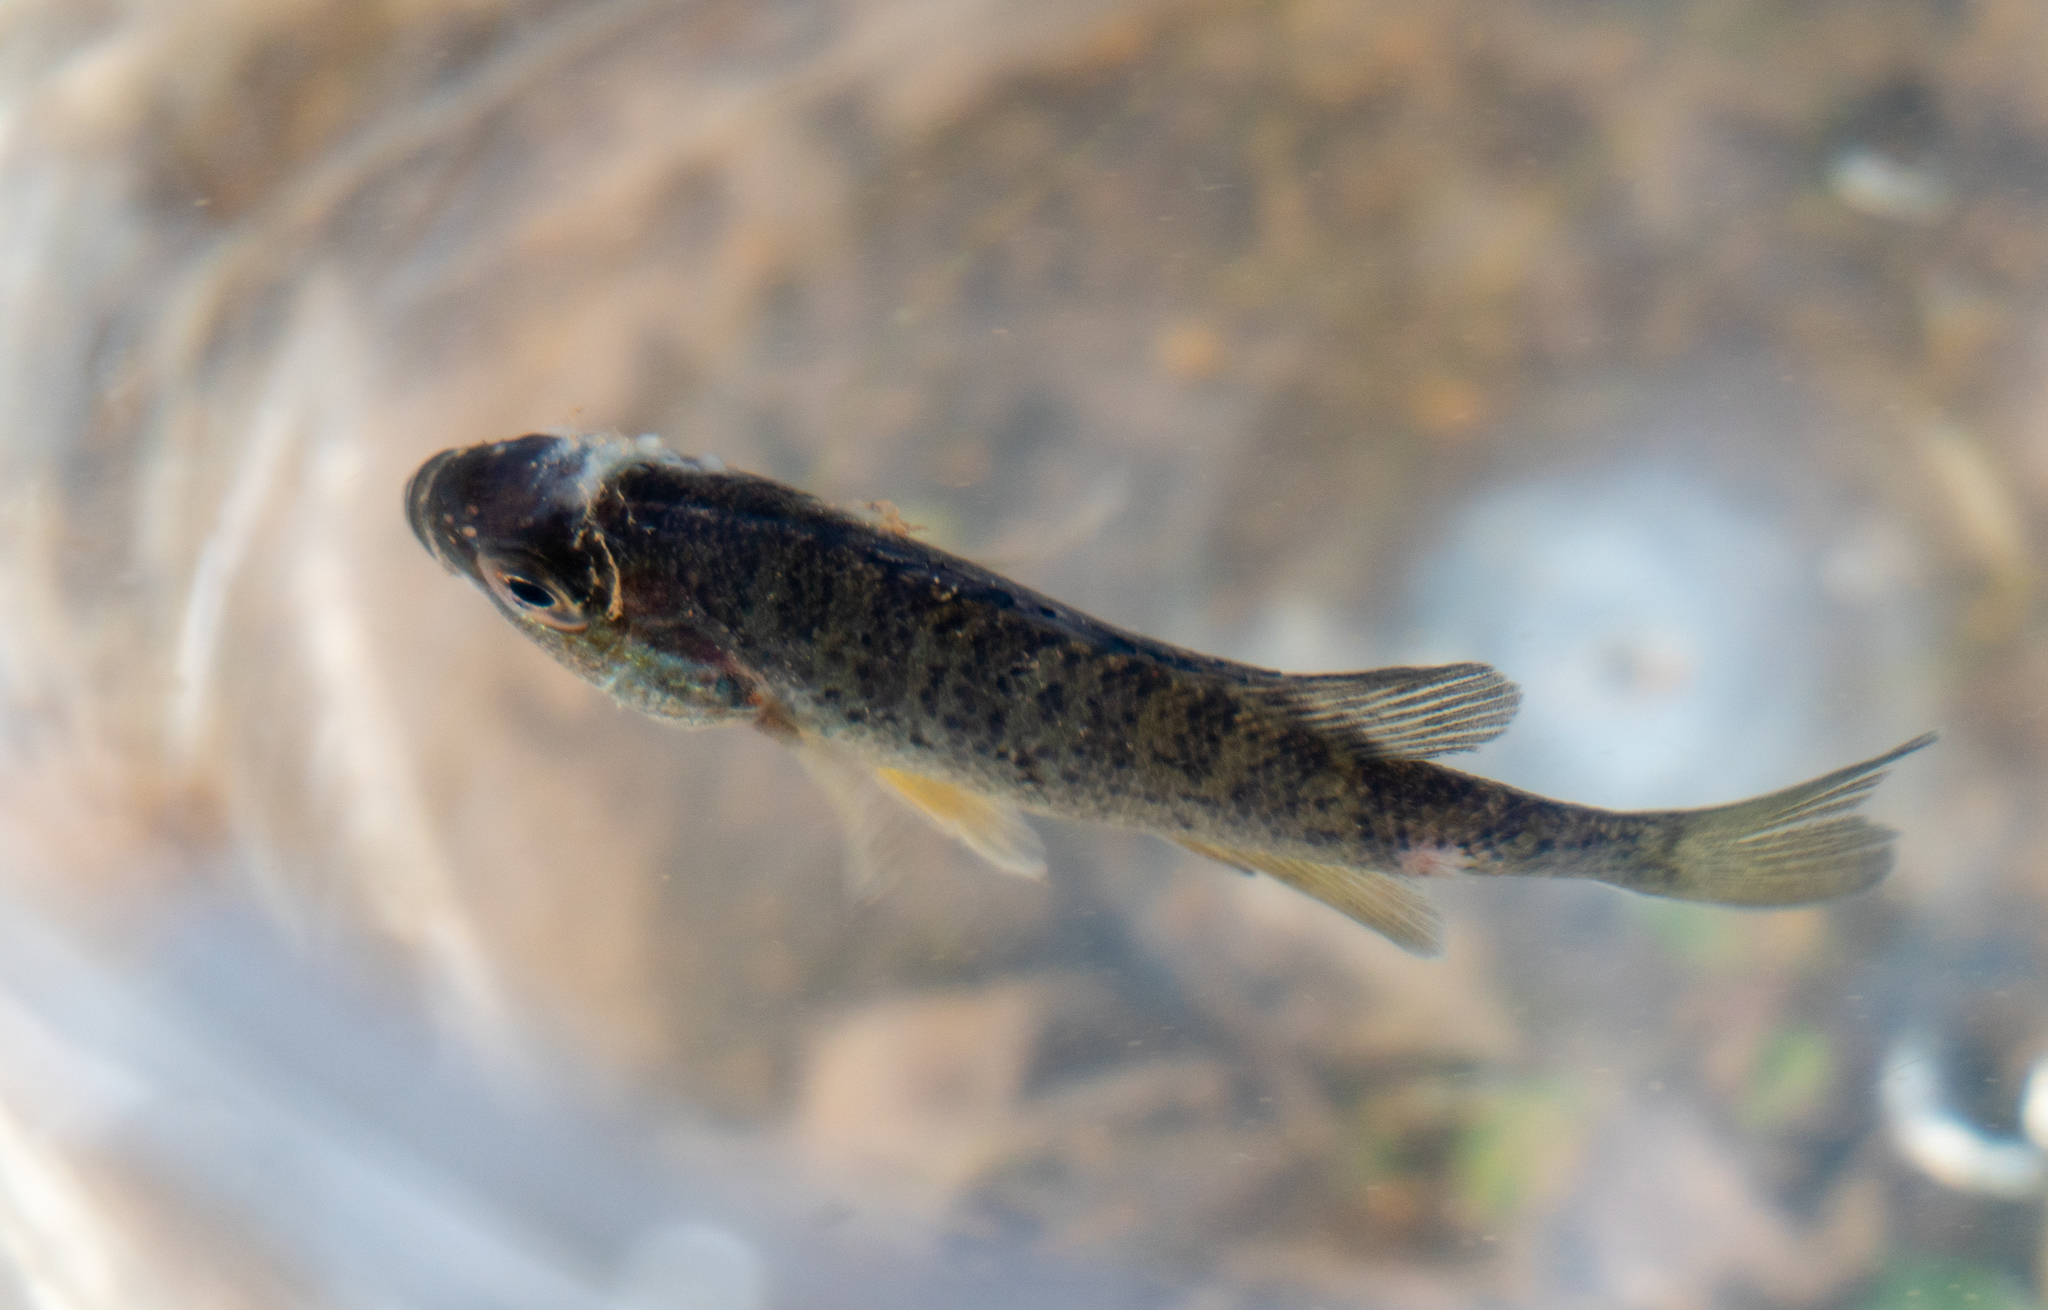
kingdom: Animalia
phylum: Chordata
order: Perciformes
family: Centrarchidae
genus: Lepomis
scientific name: Lepomis gibbosus
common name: Pumpkinseed
